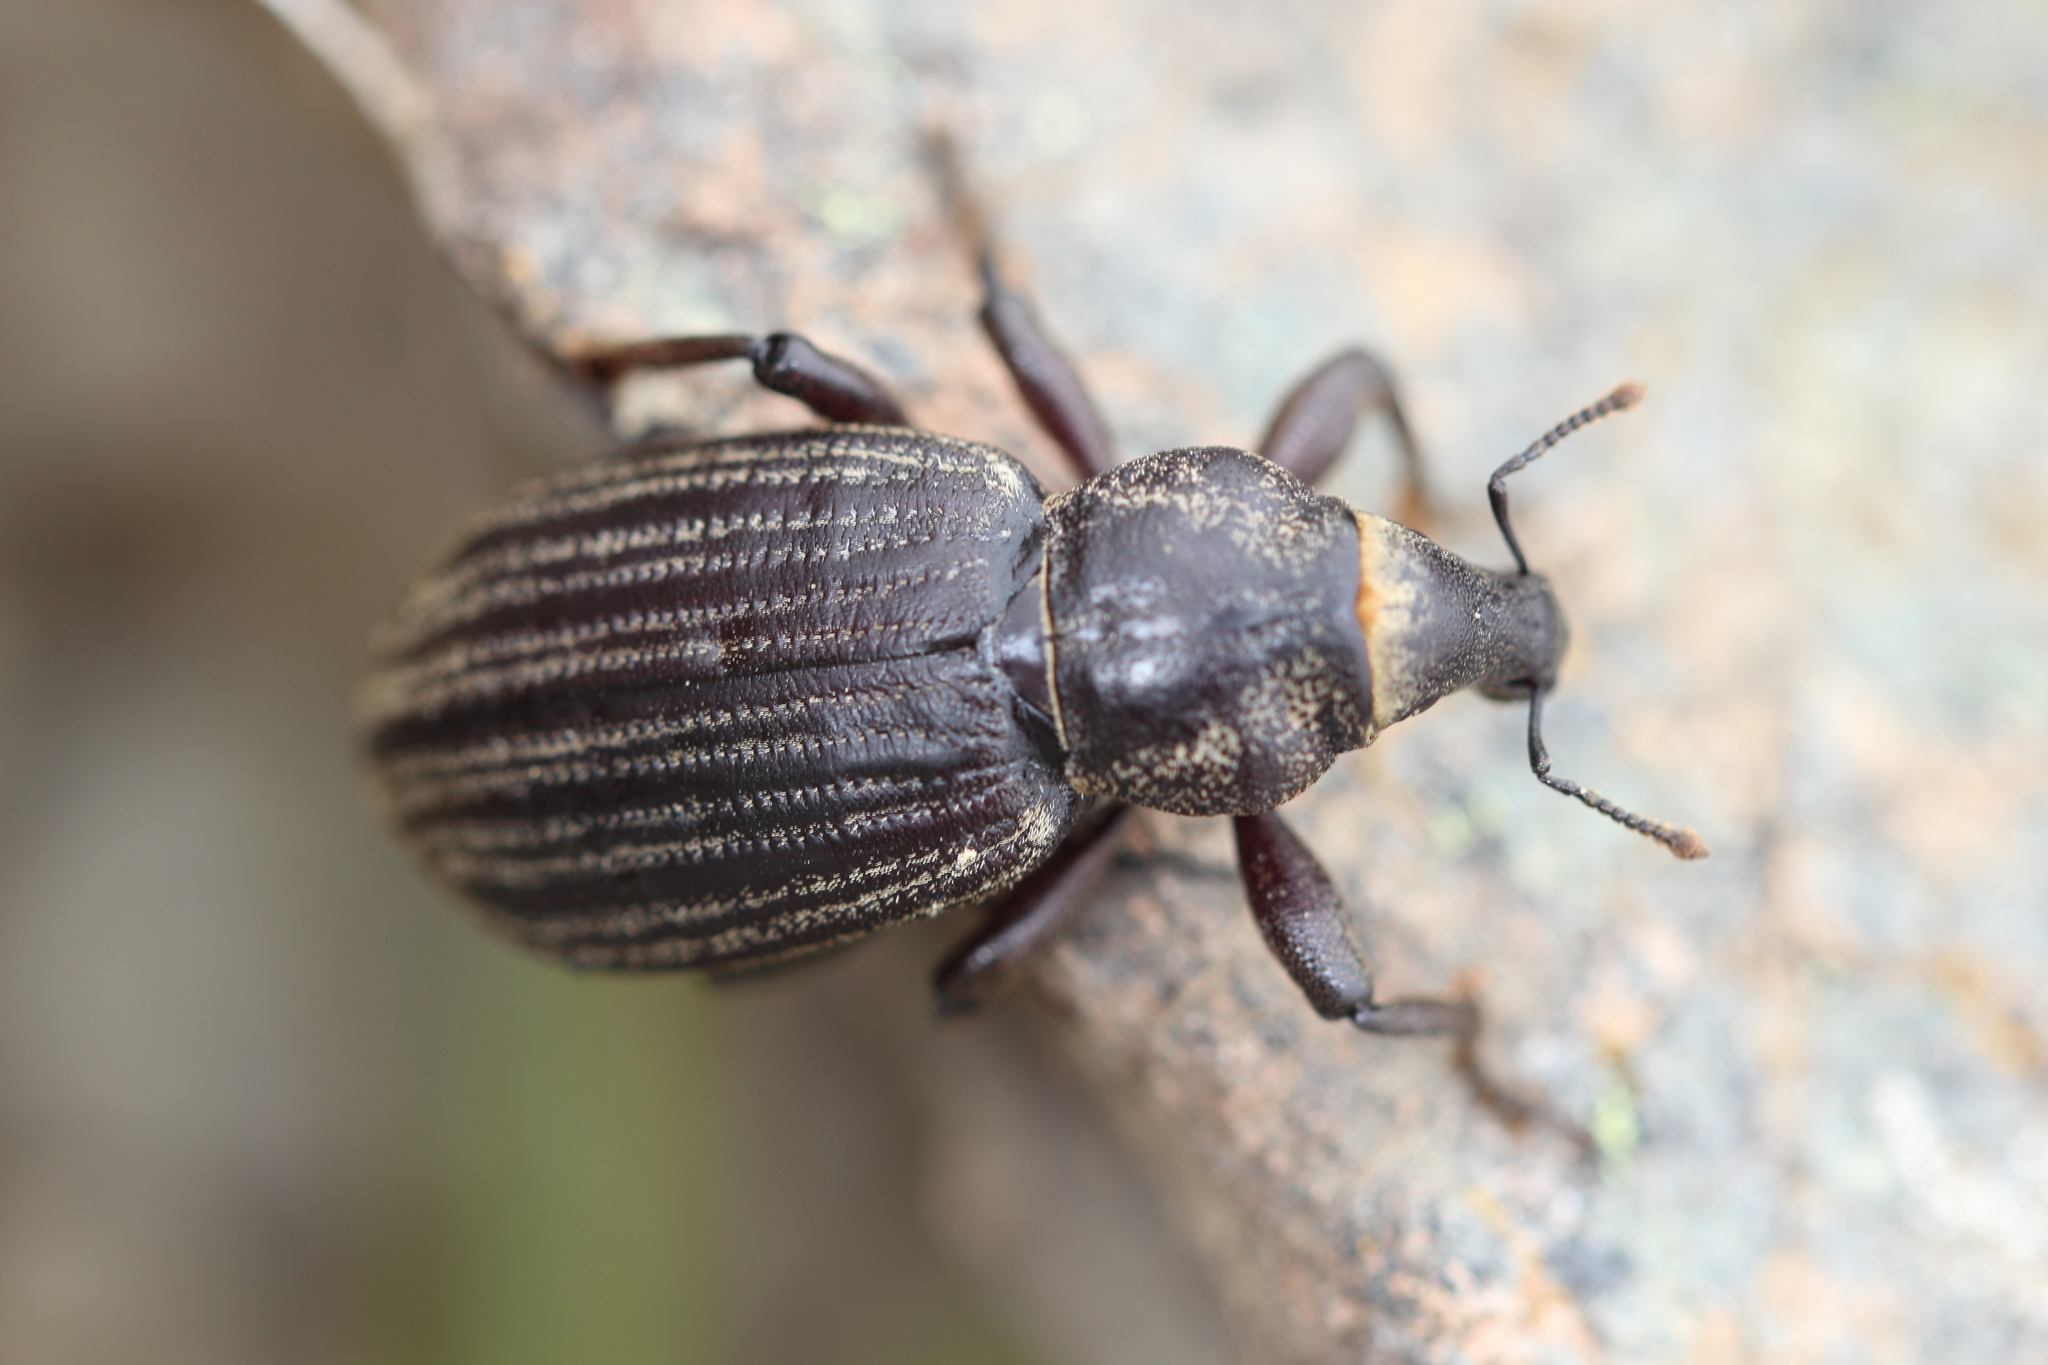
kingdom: Animalia
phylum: Arthropoda
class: Insecta
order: Coleoptera
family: Curculionidae
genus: Lyperobius
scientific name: Lyperobius huttoni
